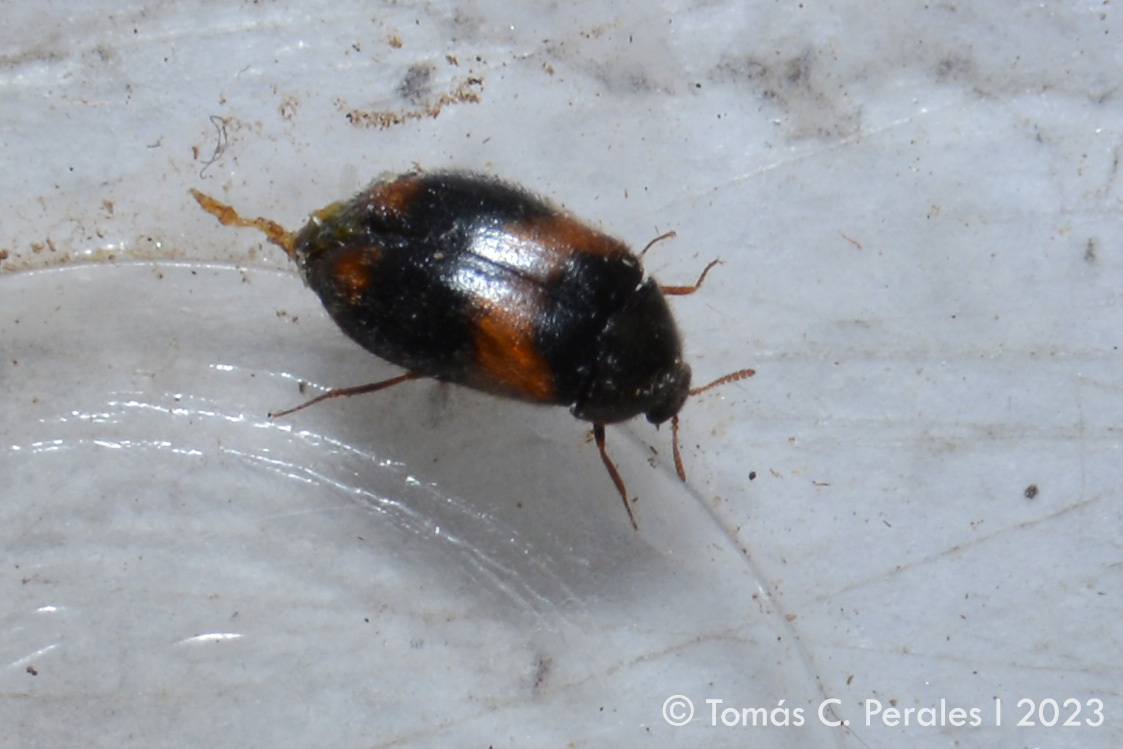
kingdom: Animalia
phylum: Arthropoda
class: Insecta
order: Coleoptera
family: Dermestidae
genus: Trogoderma
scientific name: Trogoderma
